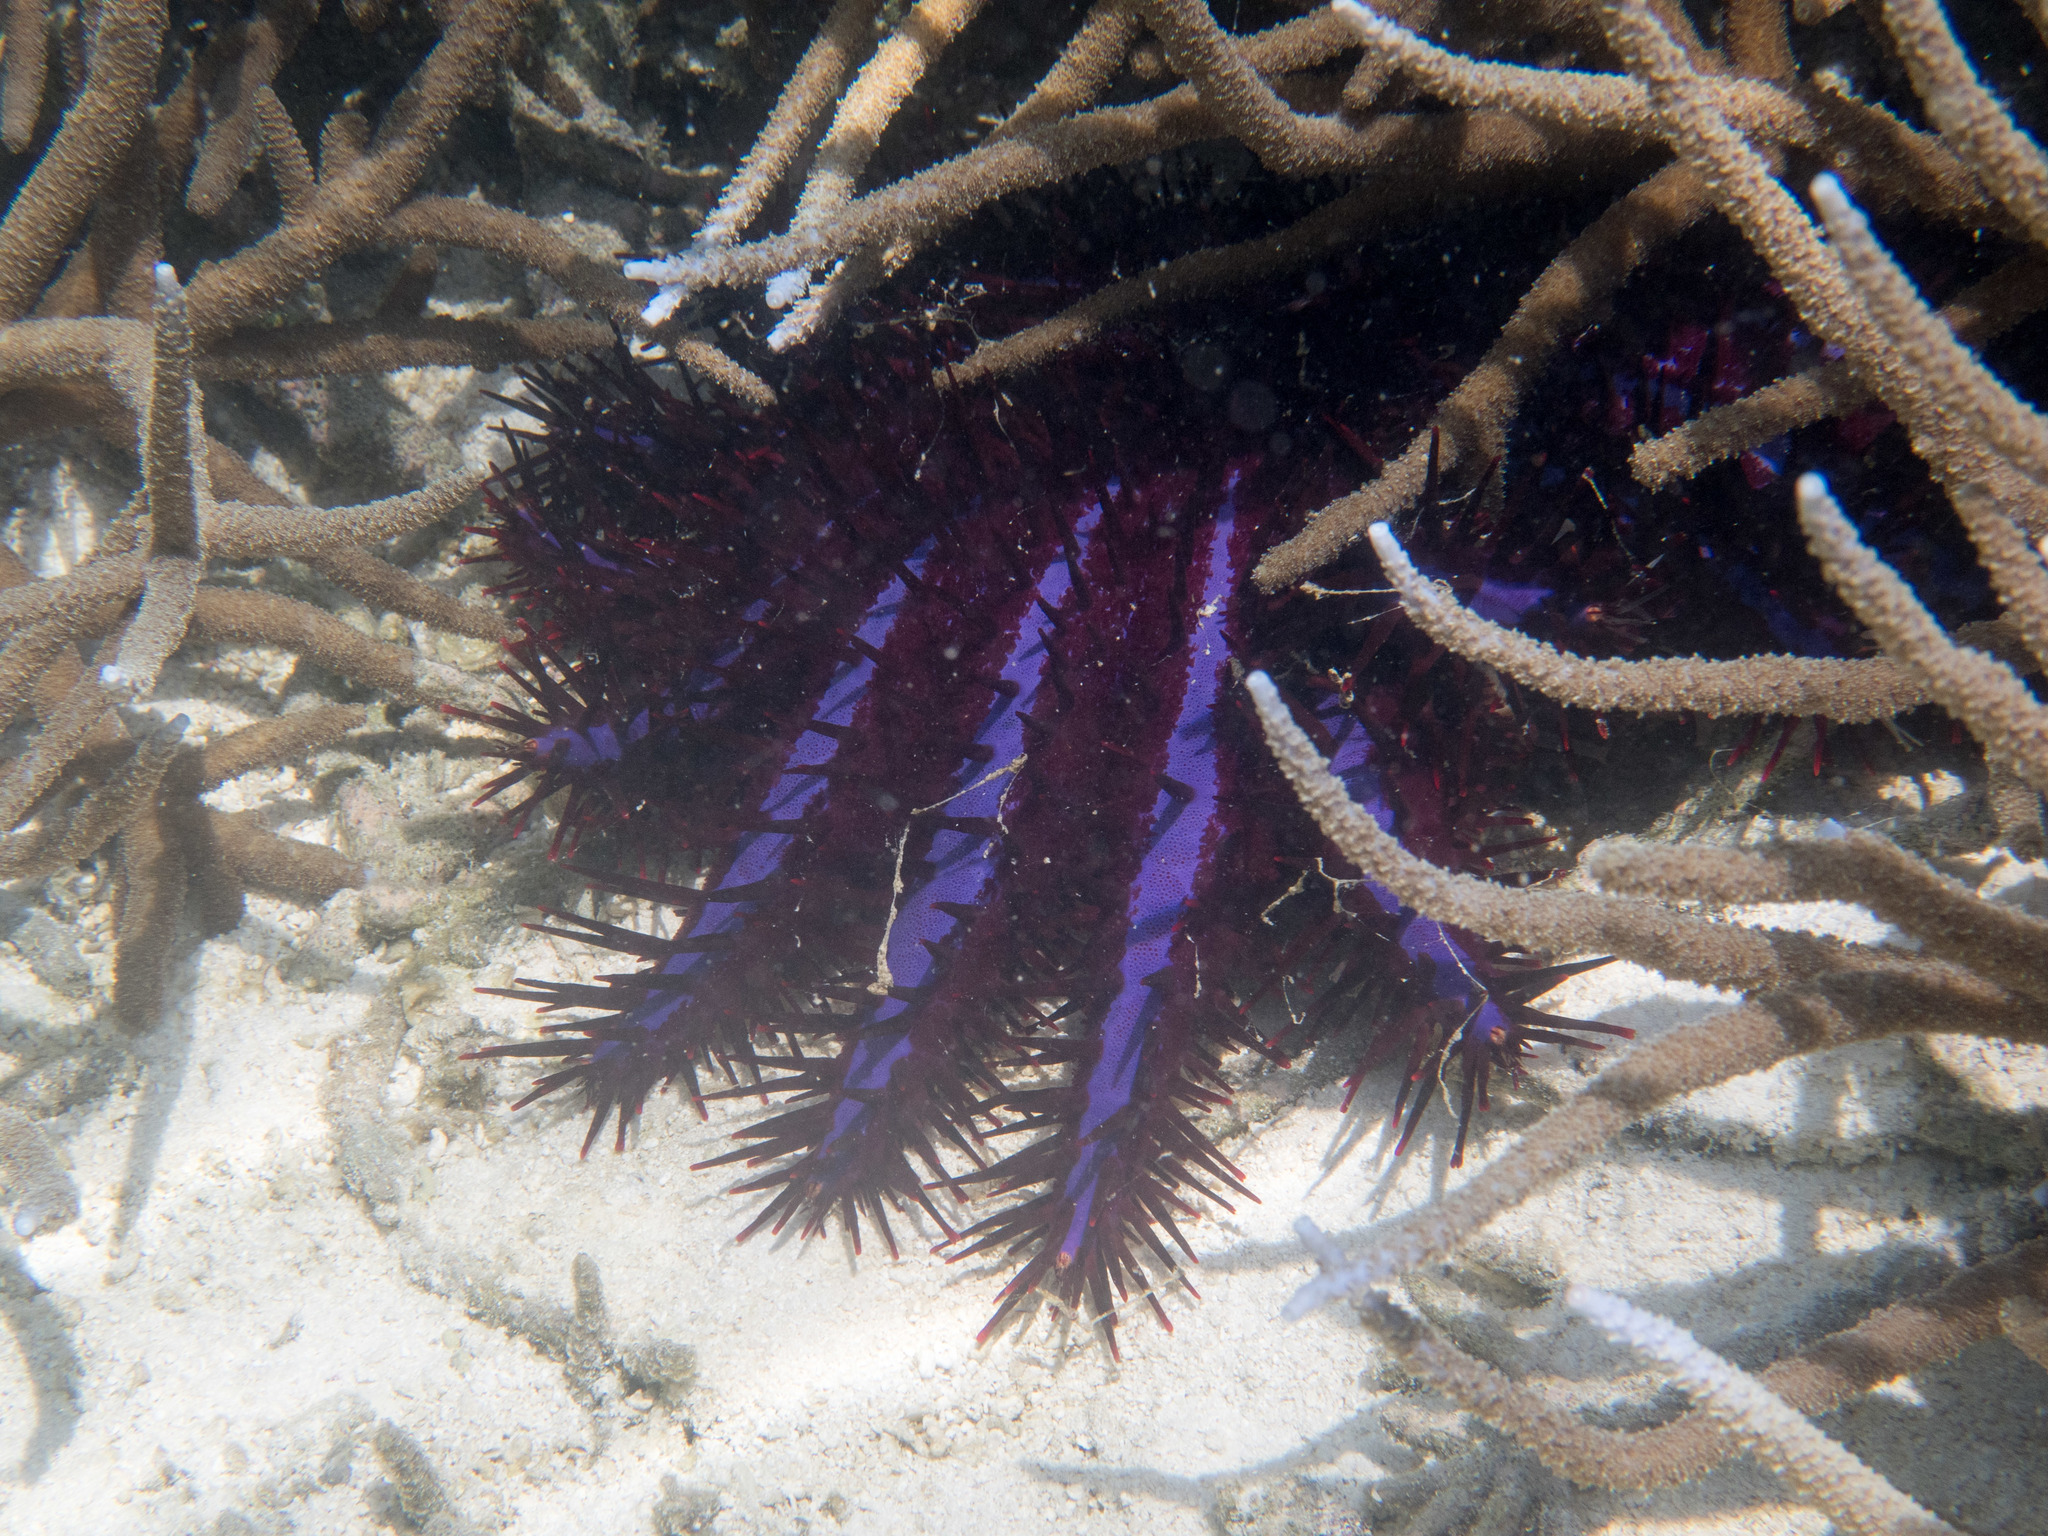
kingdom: Animalia
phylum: Echinodermata
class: Asteroidea
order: Valvatida
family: Acanthasteridae
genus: Acanthaster
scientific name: Acanthaster planci
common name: Crown-of-thorns
